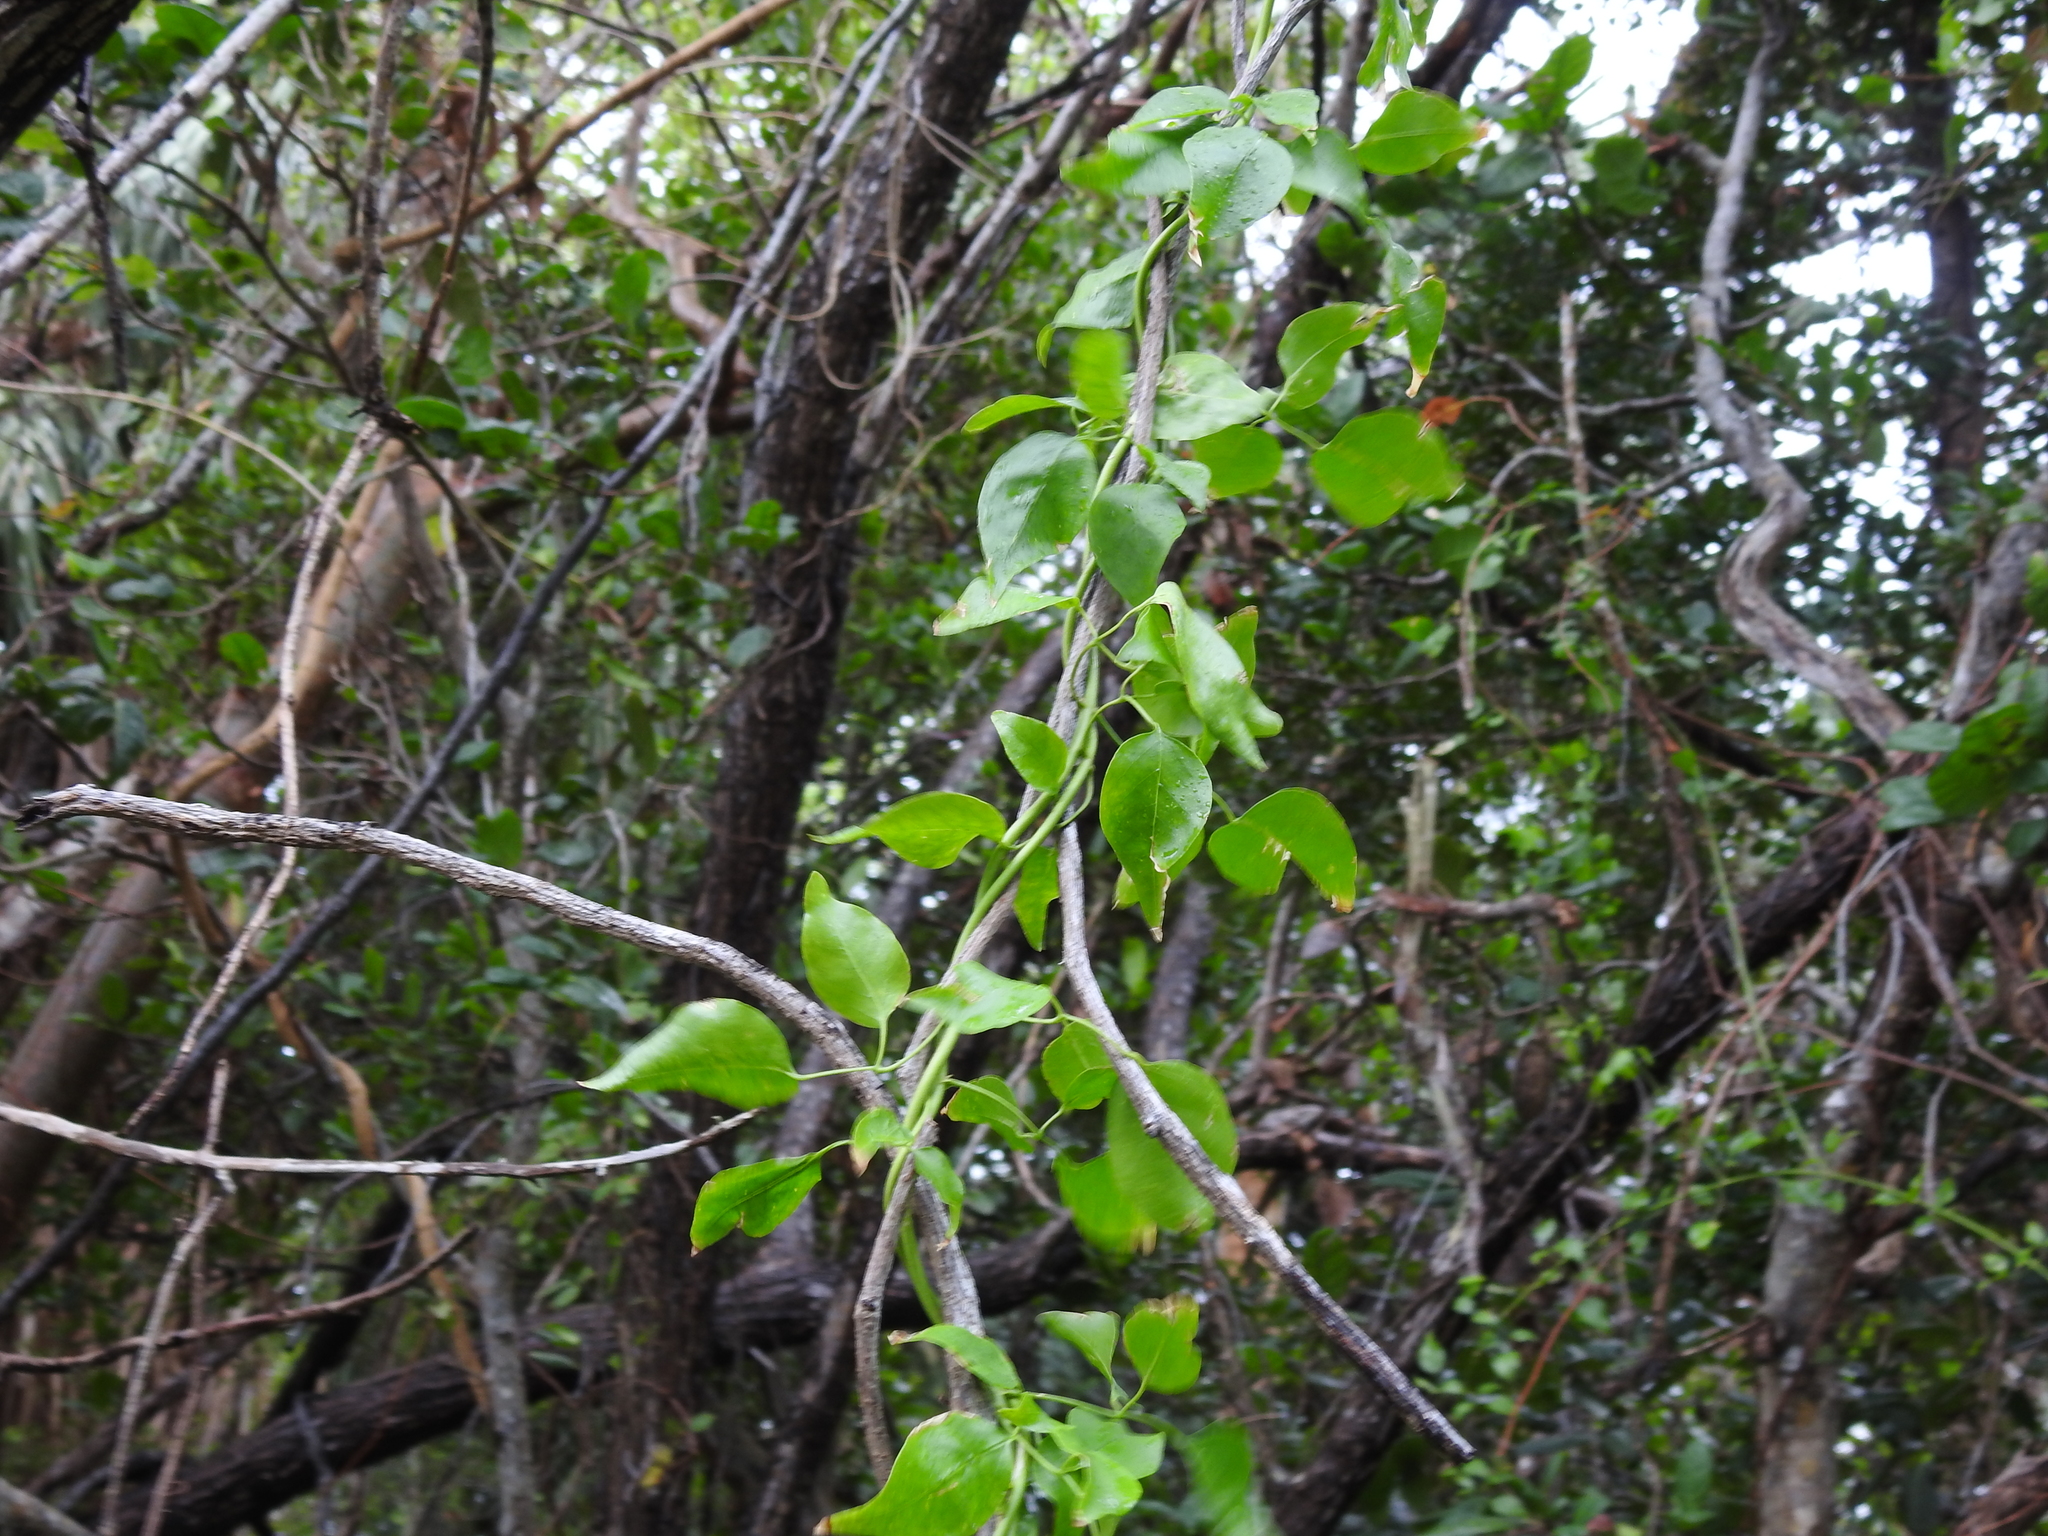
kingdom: Plantae
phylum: Tracheophyta
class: Magnoliopsida
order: Lamiales
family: Oleaceae
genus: Jasminum
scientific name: Jasminum fluminense
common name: Brazilian jasmine
